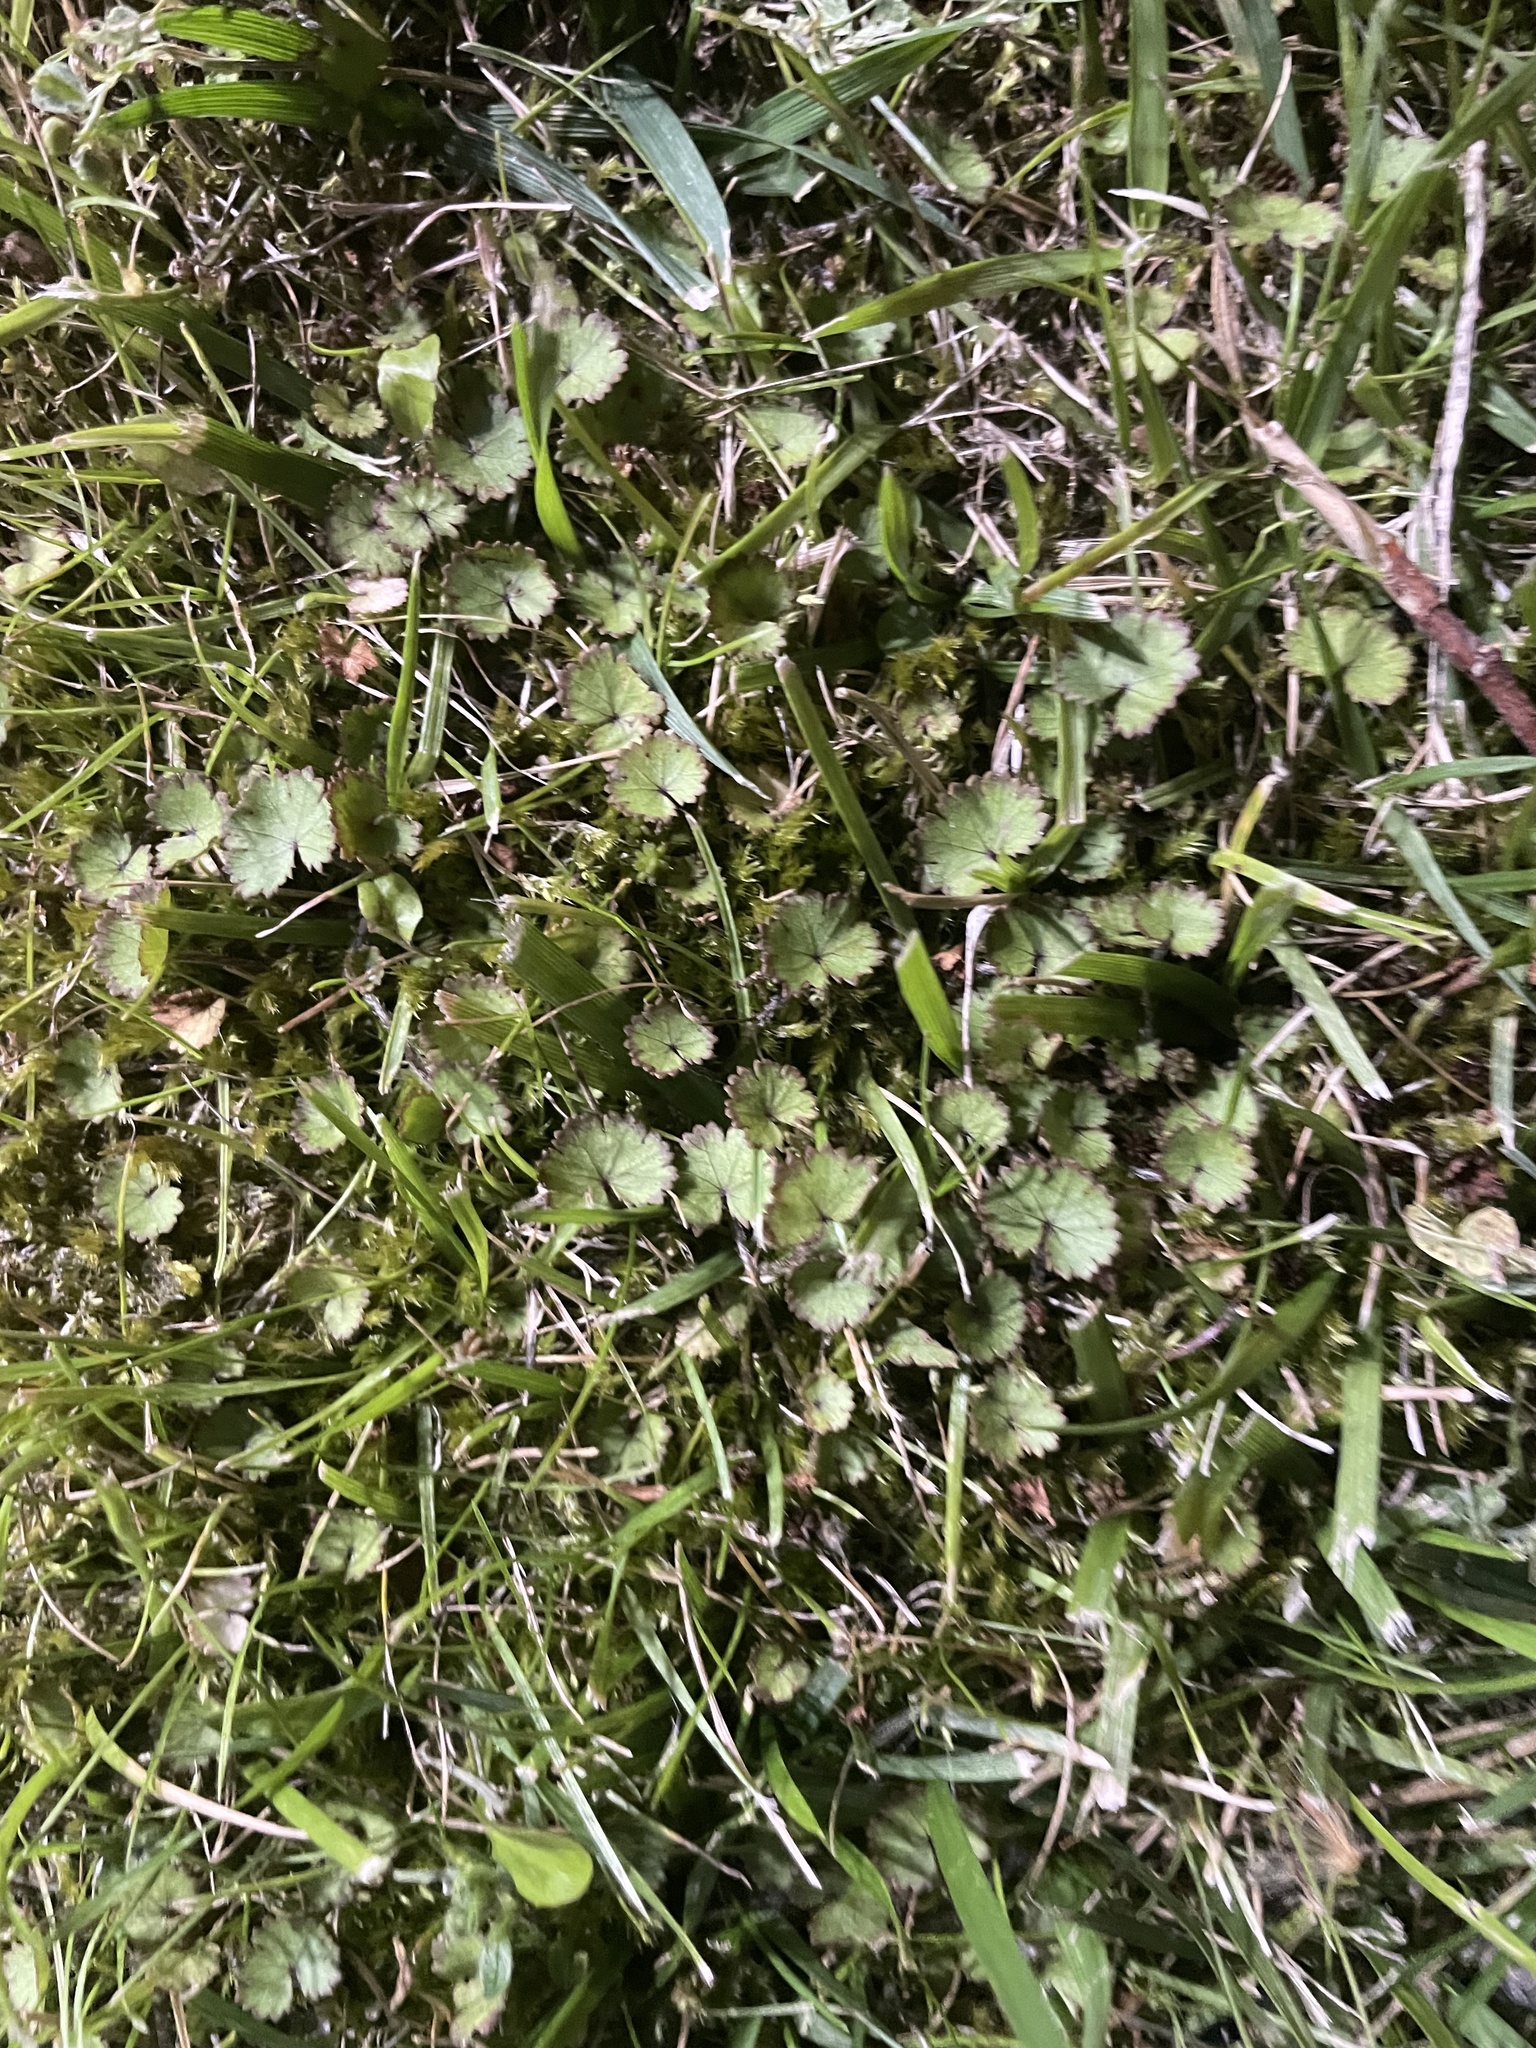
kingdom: Plantae
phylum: Tracheophyta
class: Magnoliopsida
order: Apiales
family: Araliaceae
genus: Hydrocotyle
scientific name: Hydrocotyle moschata
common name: Hairy pennywort
